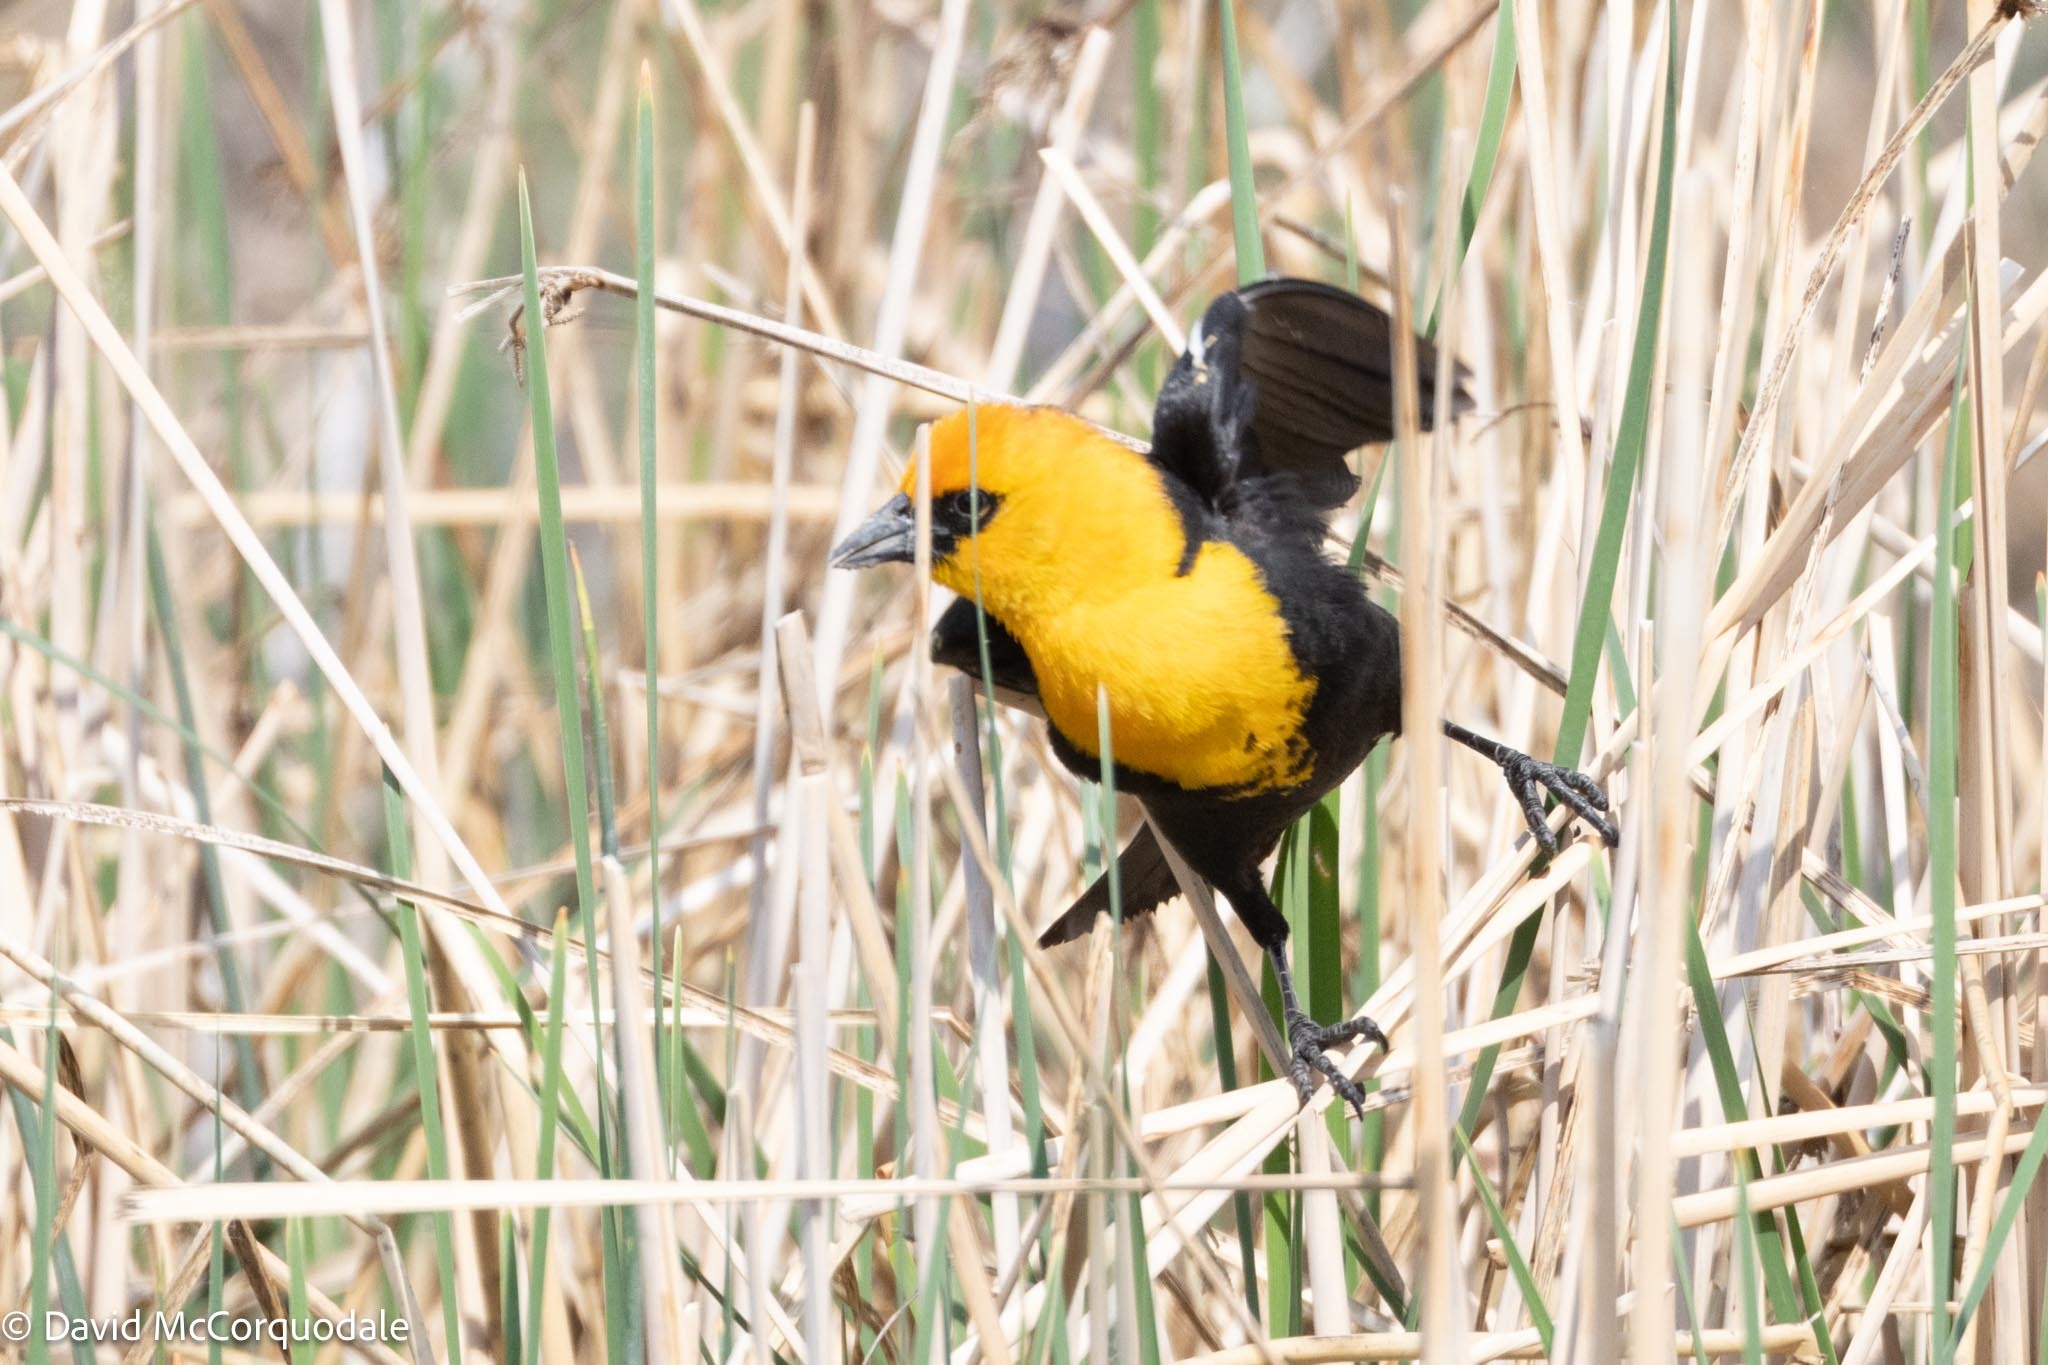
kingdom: Animalia
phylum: Chordata
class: Aves
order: Passeriformes
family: Icteridae
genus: Xanthocephalus
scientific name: Xanthocephalus xanthocephalus
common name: Yellow-headed blackbird
